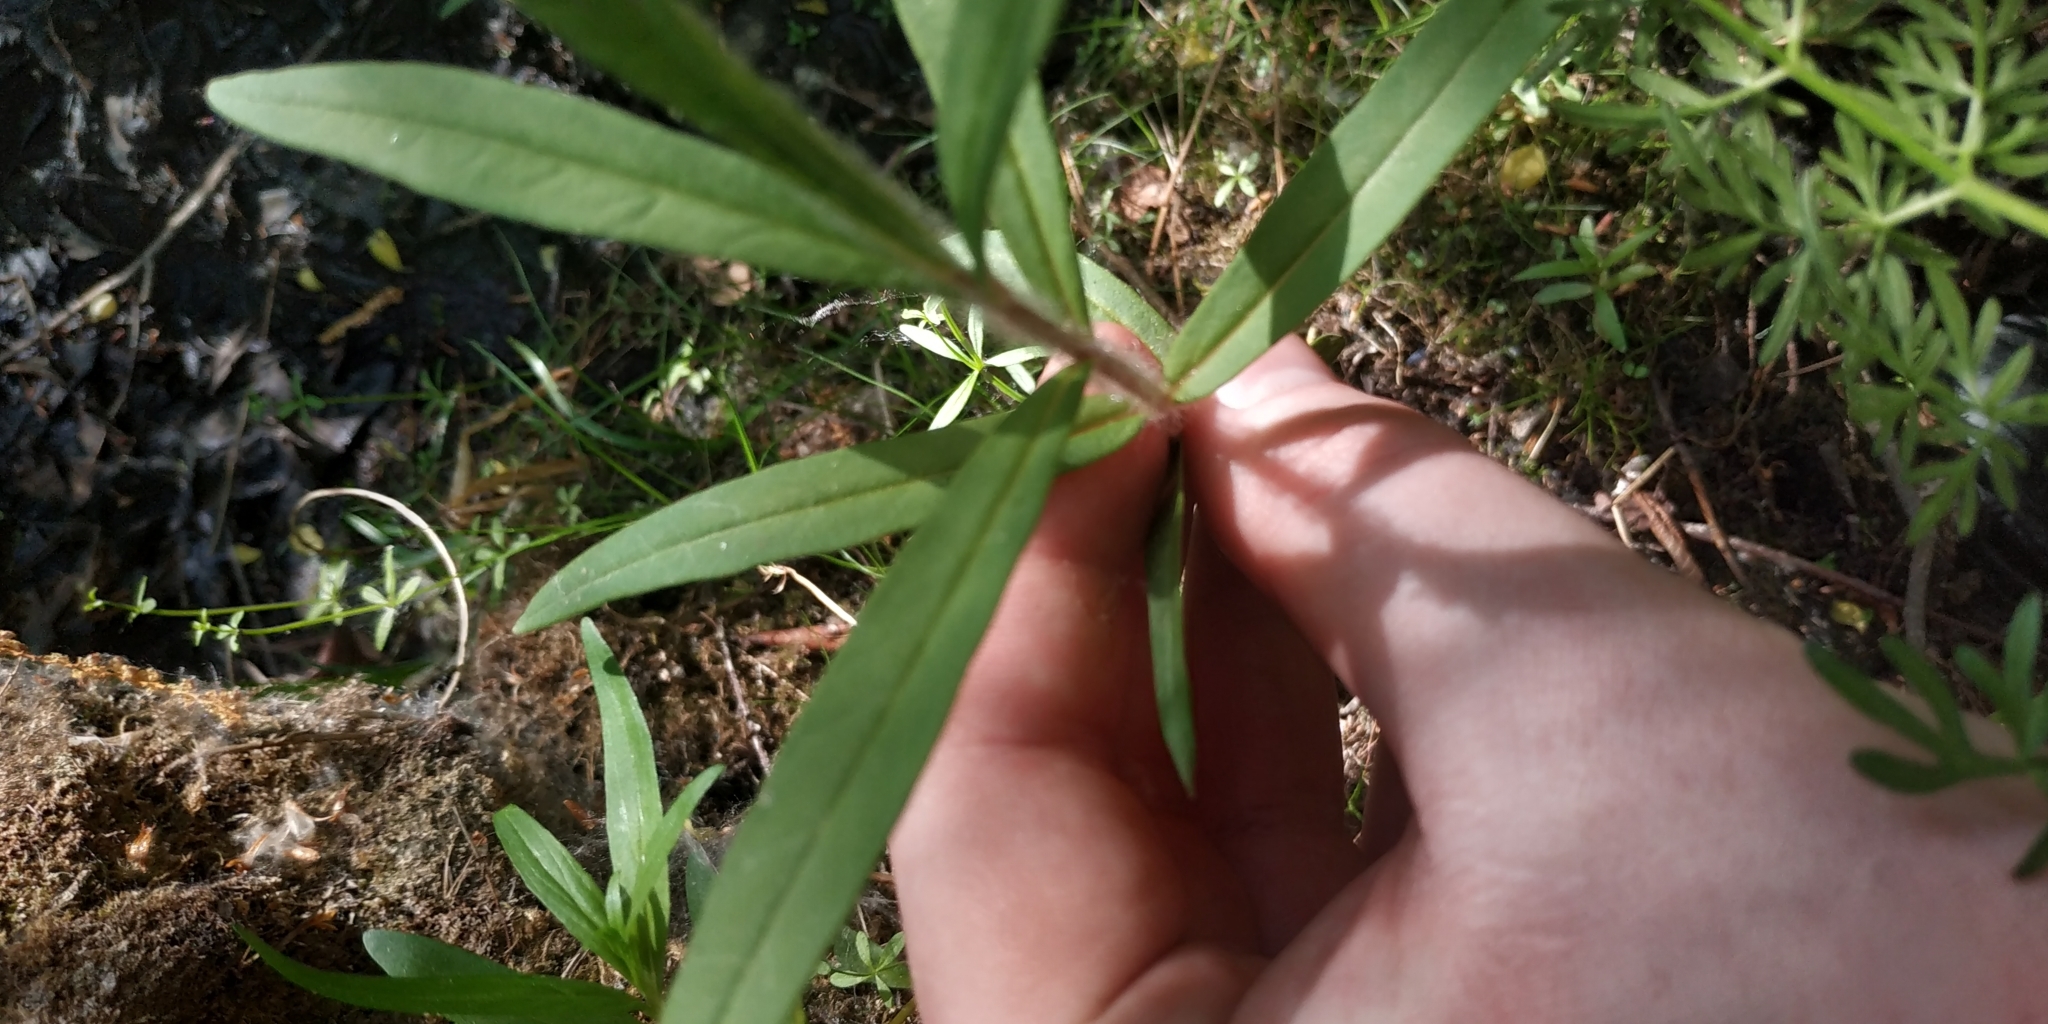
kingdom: Plantae
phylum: Tracheophyta
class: Magnoliopsida
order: Ericales
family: Primulaceae
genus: Lysimachia
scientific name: Lysimachia thyrsiflora
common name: Tufted loosestrife
